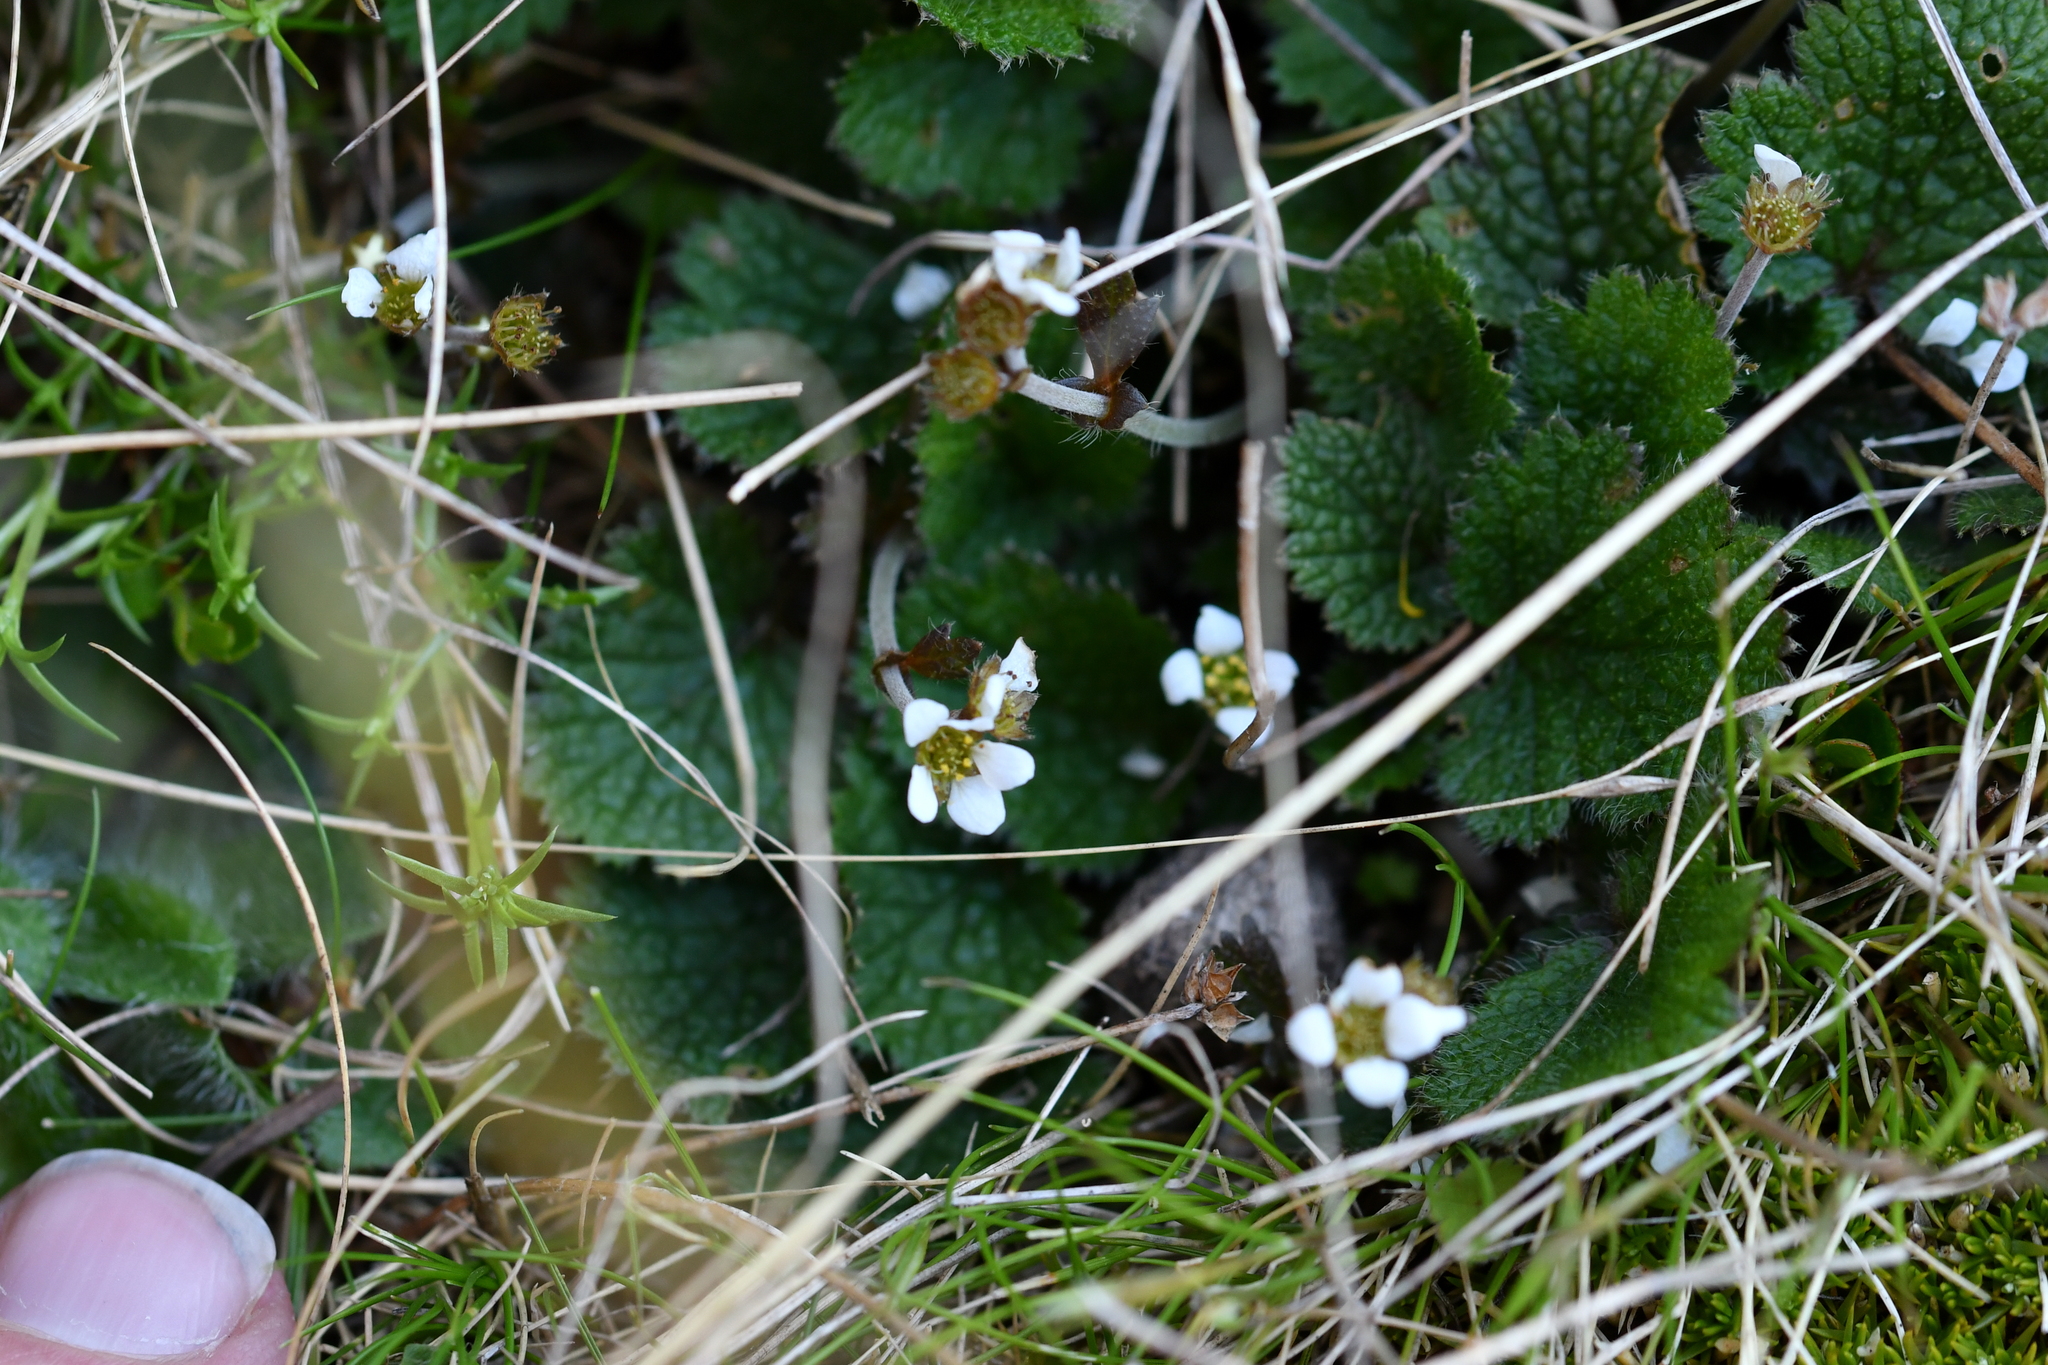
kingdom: Plantae
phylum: Tracheophyta
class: Magnoliopsida
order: Rosales
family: Rosaceae
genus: Geum
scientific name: Geum leiospermum
